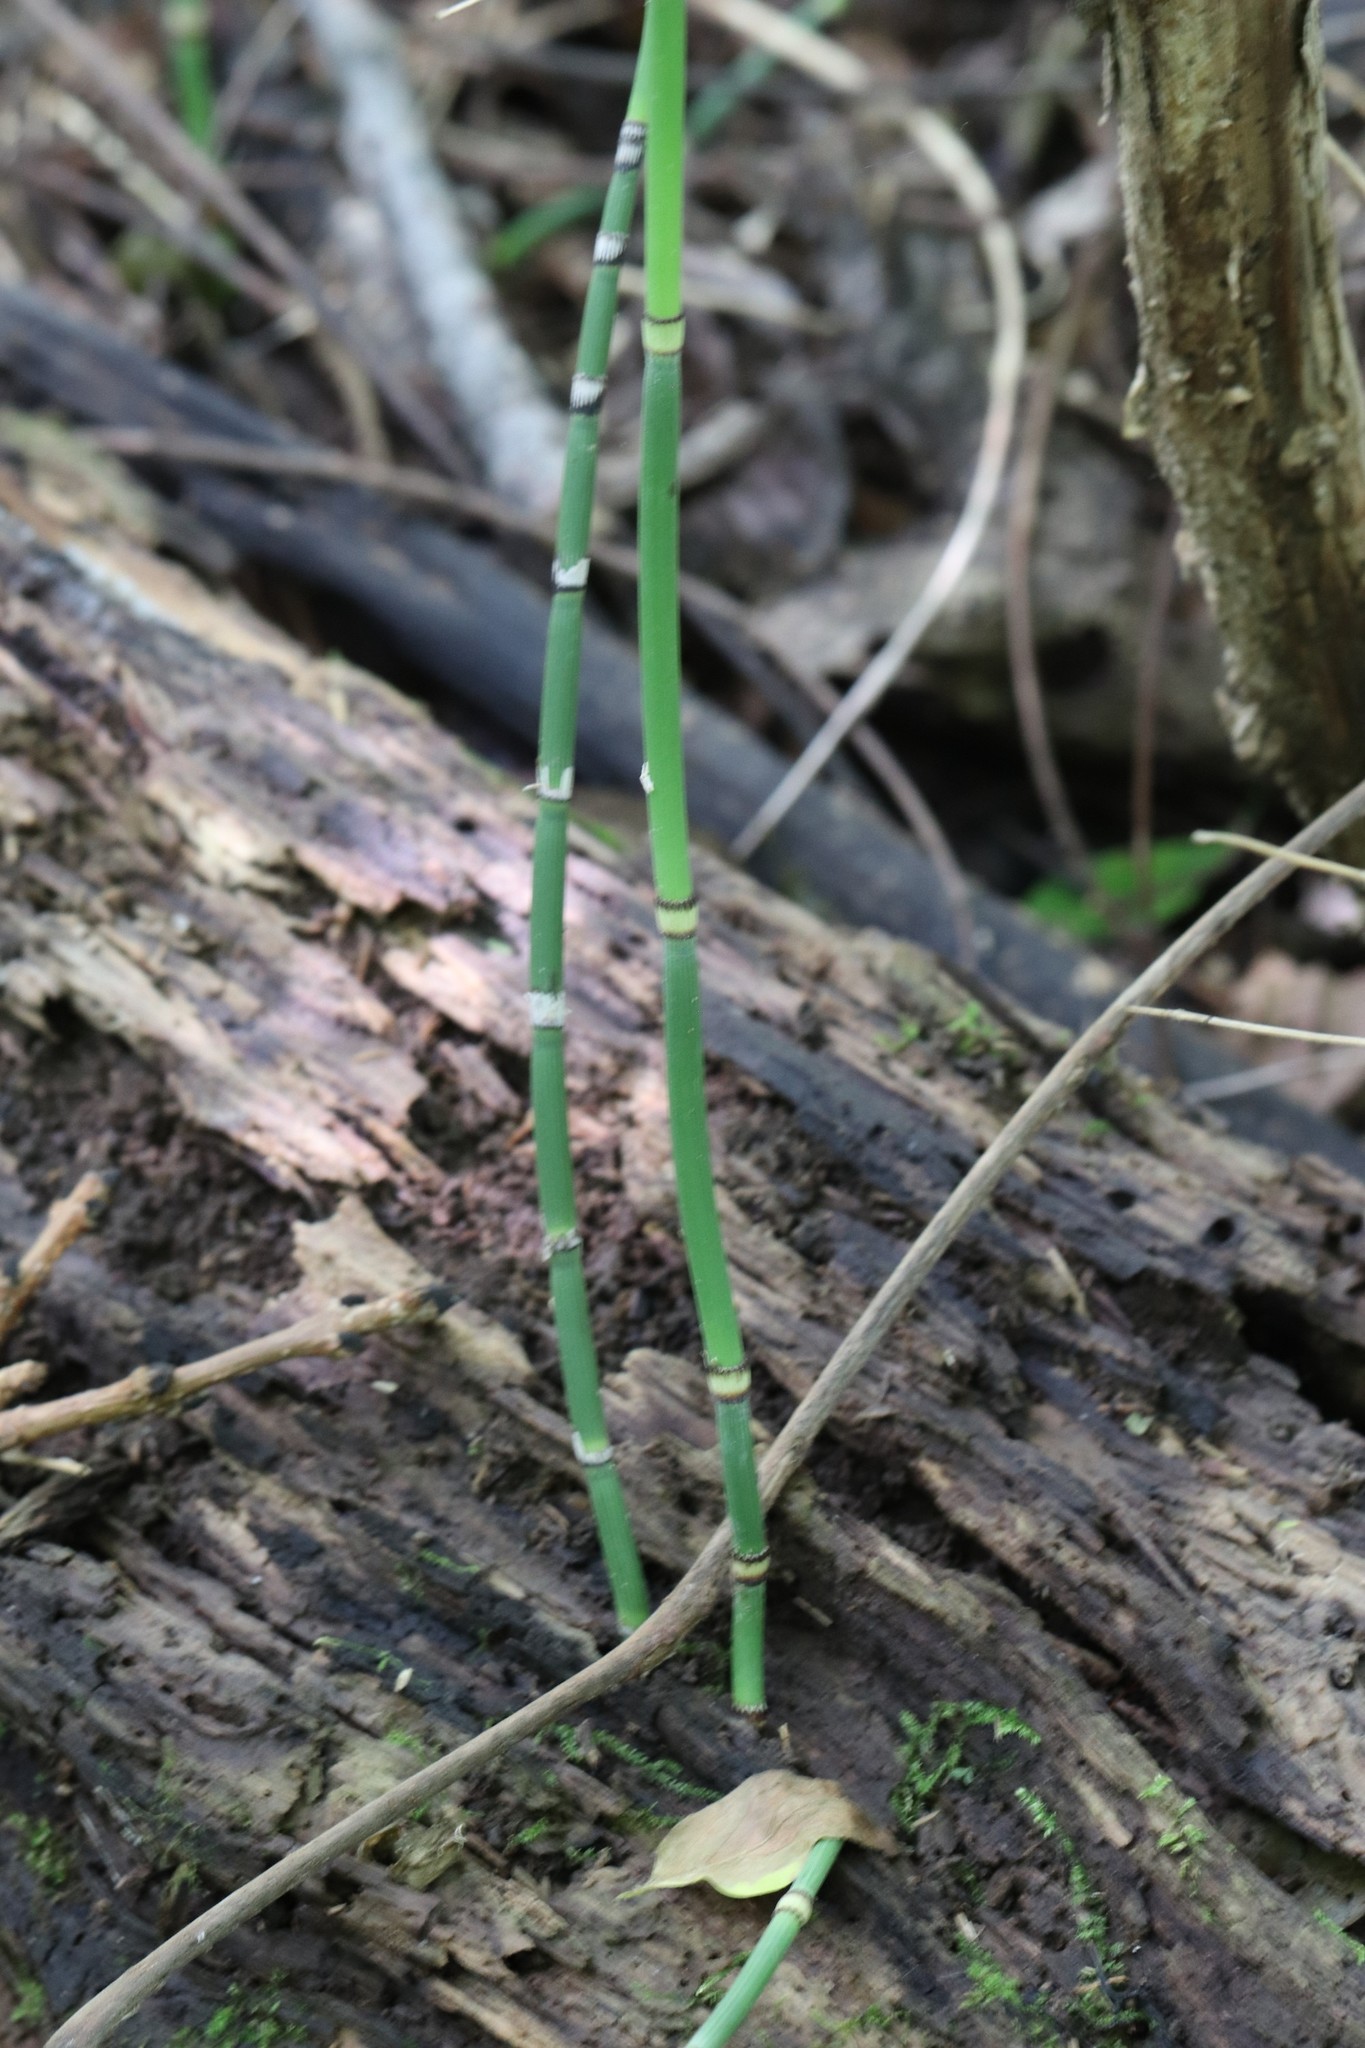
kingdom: Plantae
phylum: Tracheophyta
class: Polypodiopsida
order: Equisetales
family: Equisetaceae
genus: Equisetum
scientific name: Equisetum hyemale
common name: Rough horsetail
